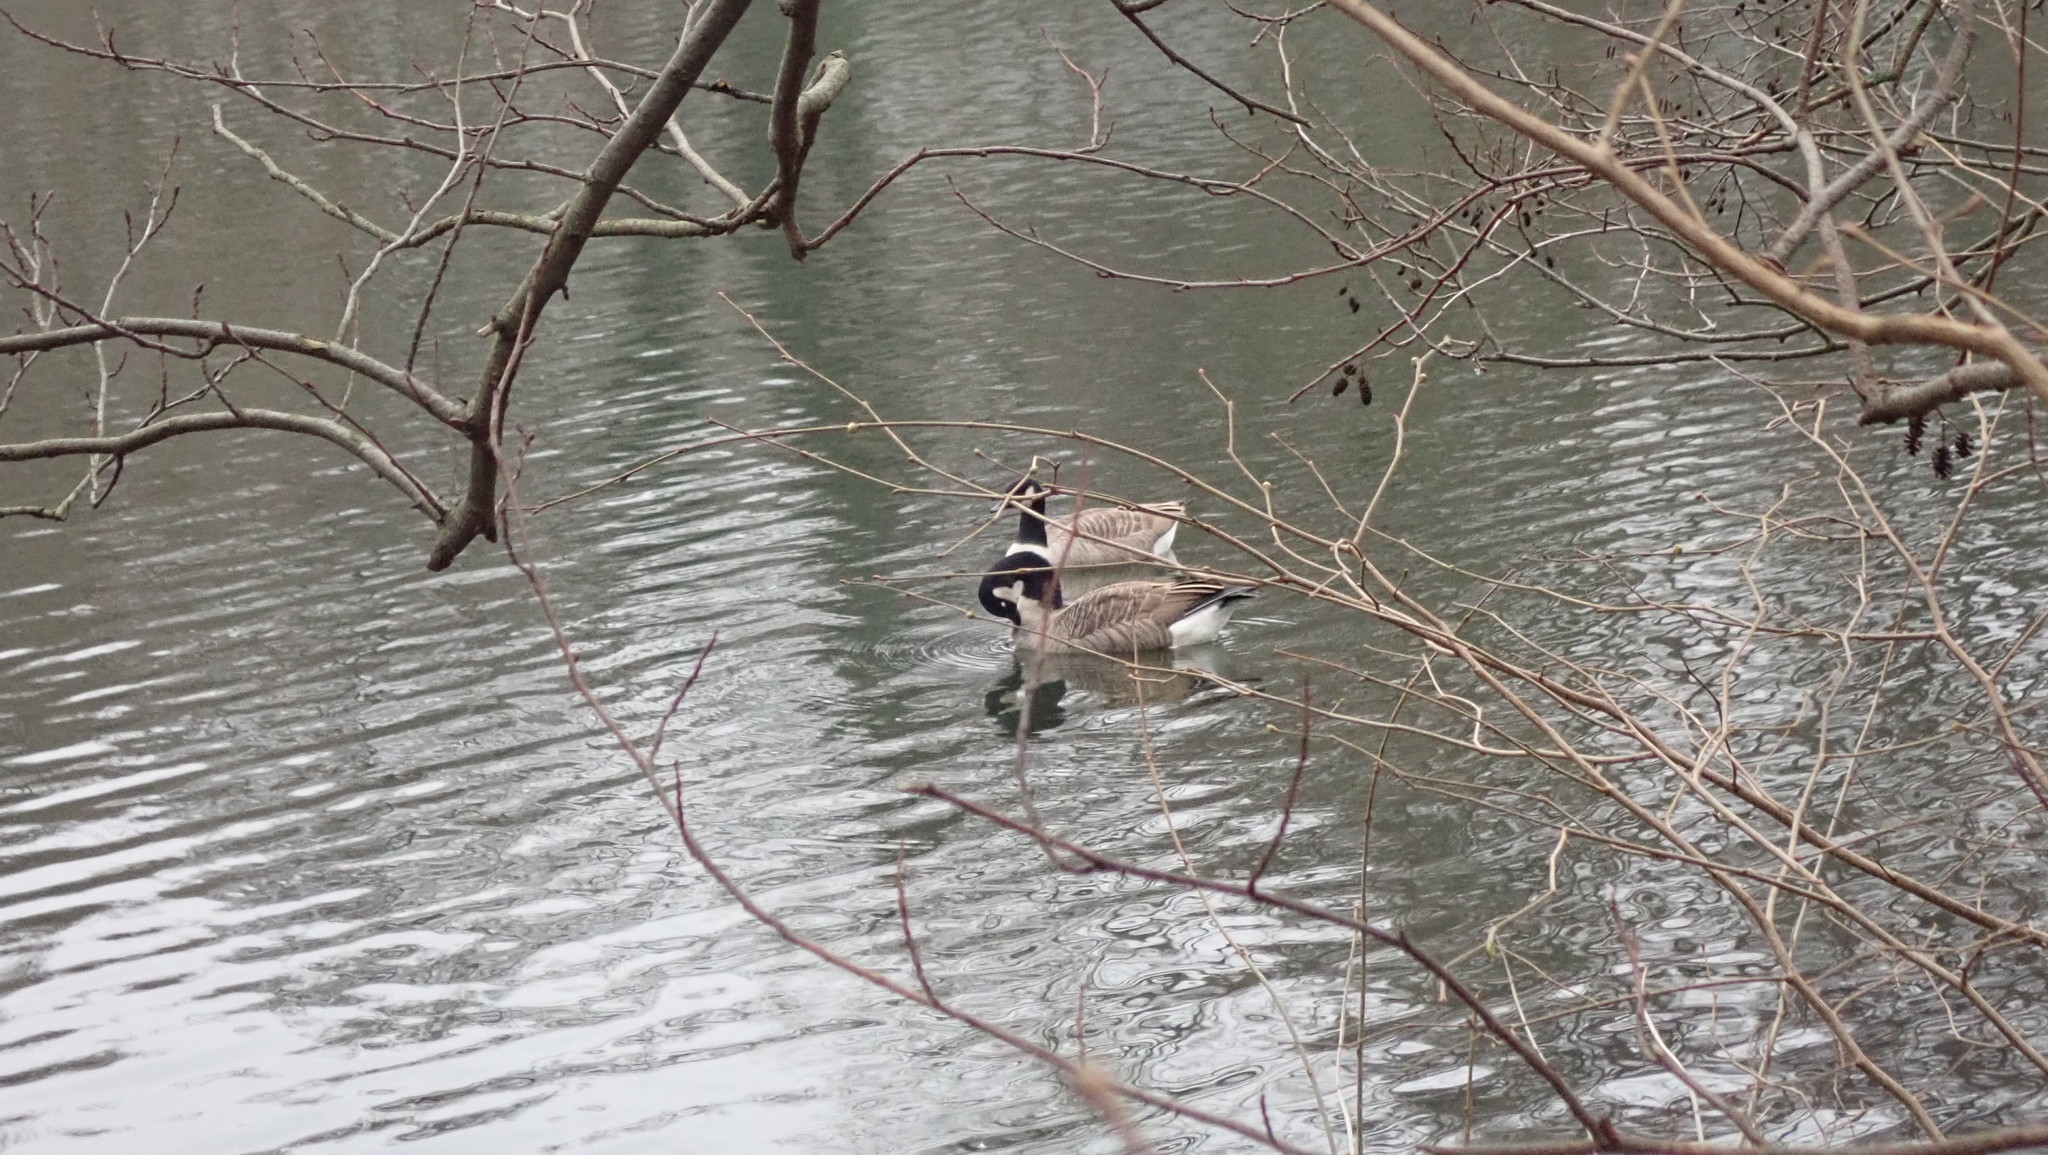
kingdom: Animalia
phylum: Chordata
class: Aves
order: Anseriformes
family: Anatidae
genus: Branta
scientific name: Branta canadensis
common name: Canada goose
